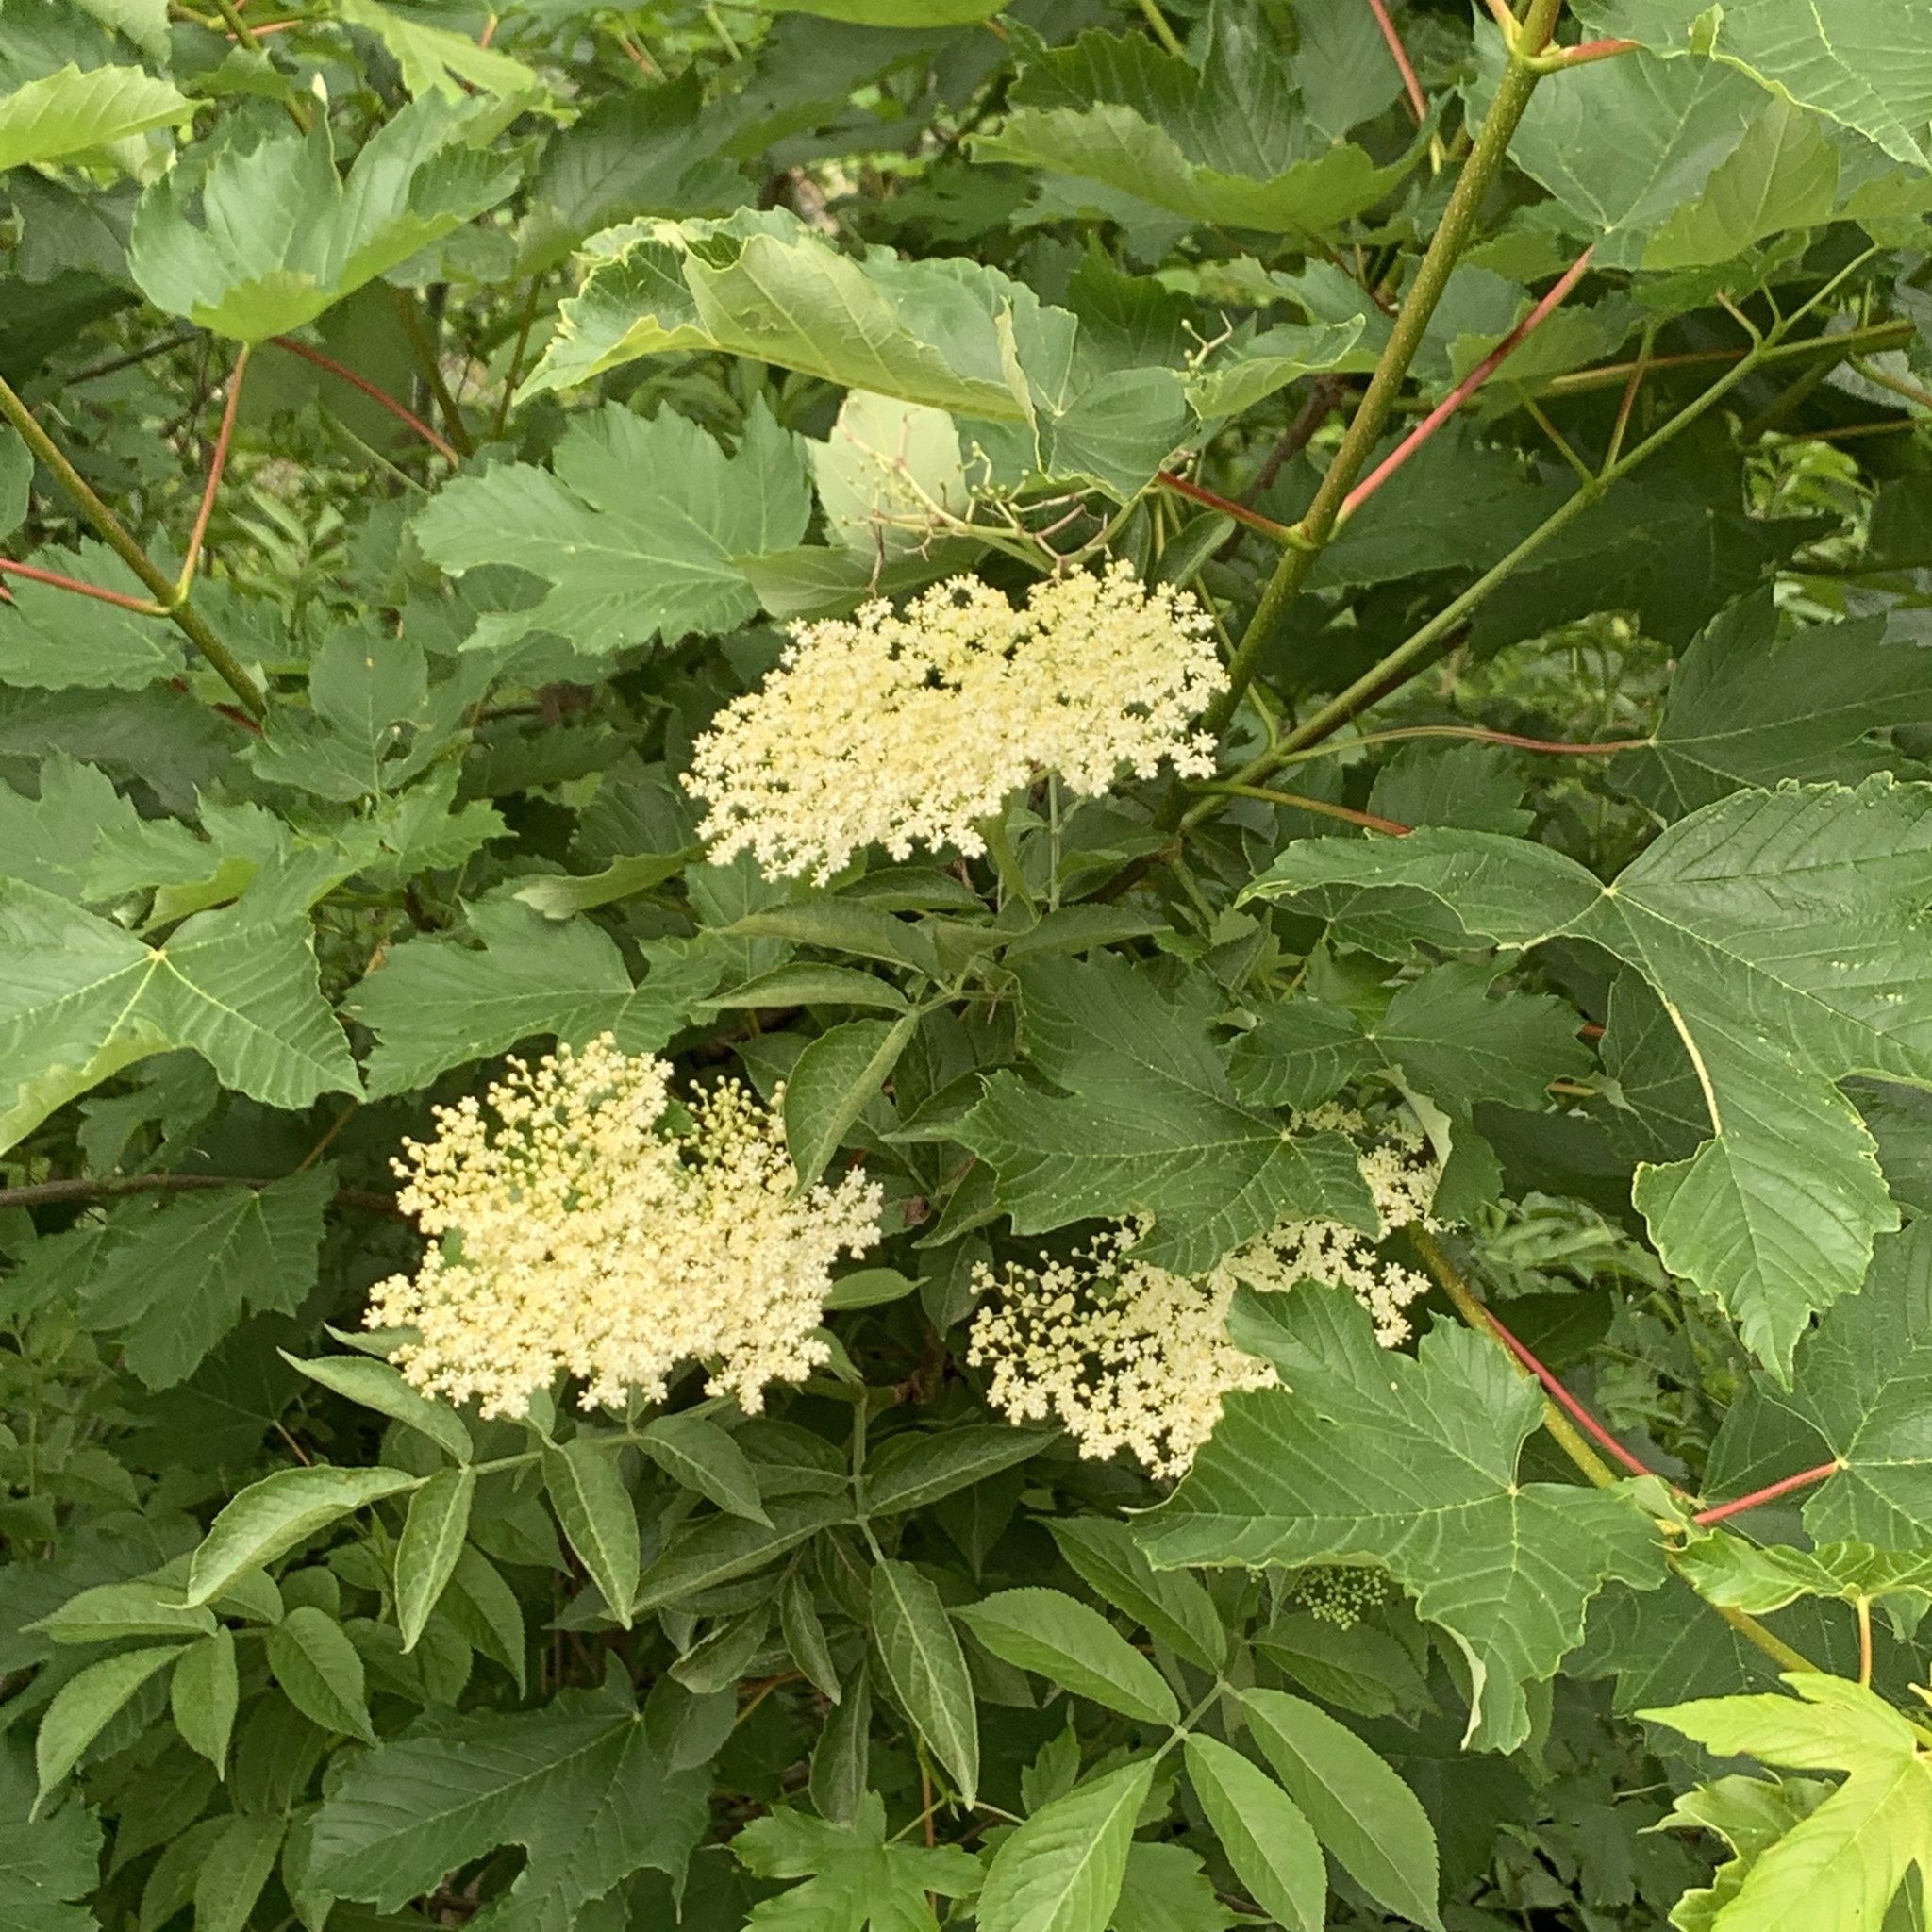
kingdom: Plantae
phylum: Tracheophyta
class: Magnoliopsida
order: Dipsacales
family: Viburnaceae
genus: Sambucus
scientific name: Sambucus nigra
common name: Elder
